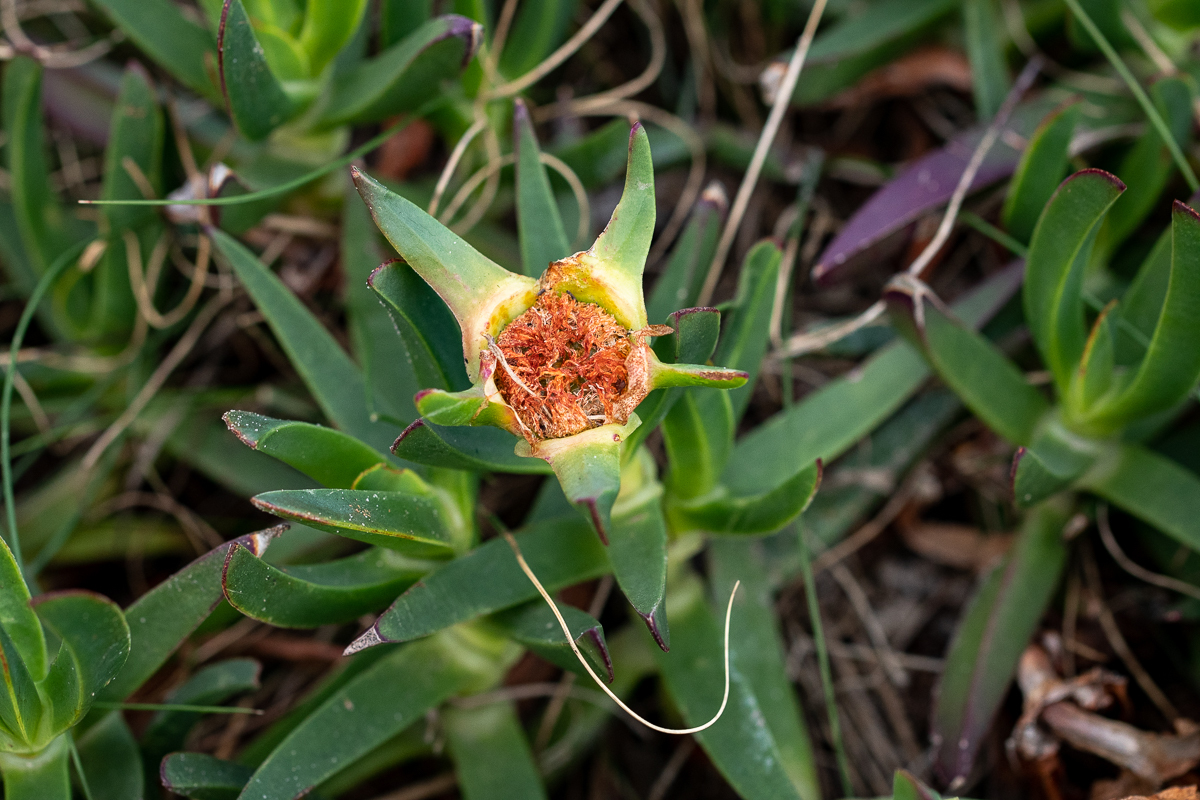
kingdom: Plantae
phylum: Tracheophyta
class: Magnoliopsida
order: Caryophyllales
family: Aizoaceae
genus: Carpobrotus
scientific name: Carpobrotus edulis
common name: Hottentot-fig
